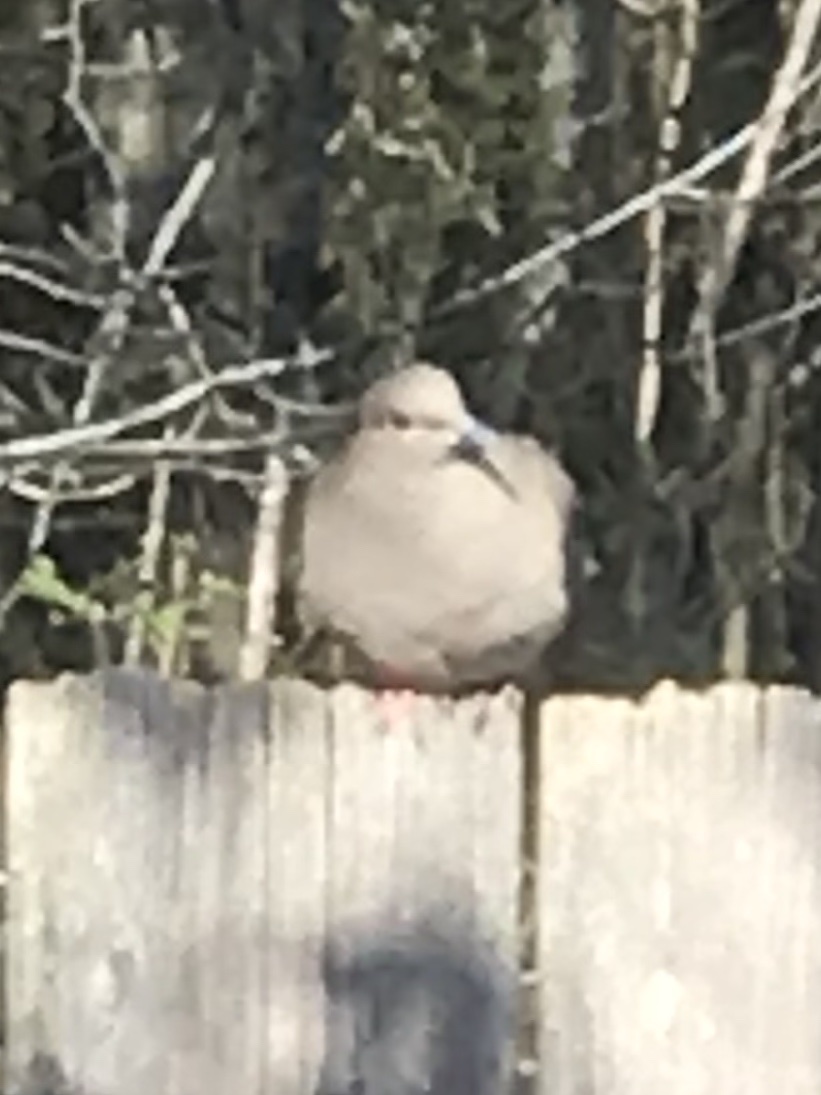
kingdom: Animalia
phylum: Chordata
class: Aves
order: Columbiformes
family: Columbidae
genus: Zenaida
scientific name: Zenaida macroura
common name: Mourning dove
